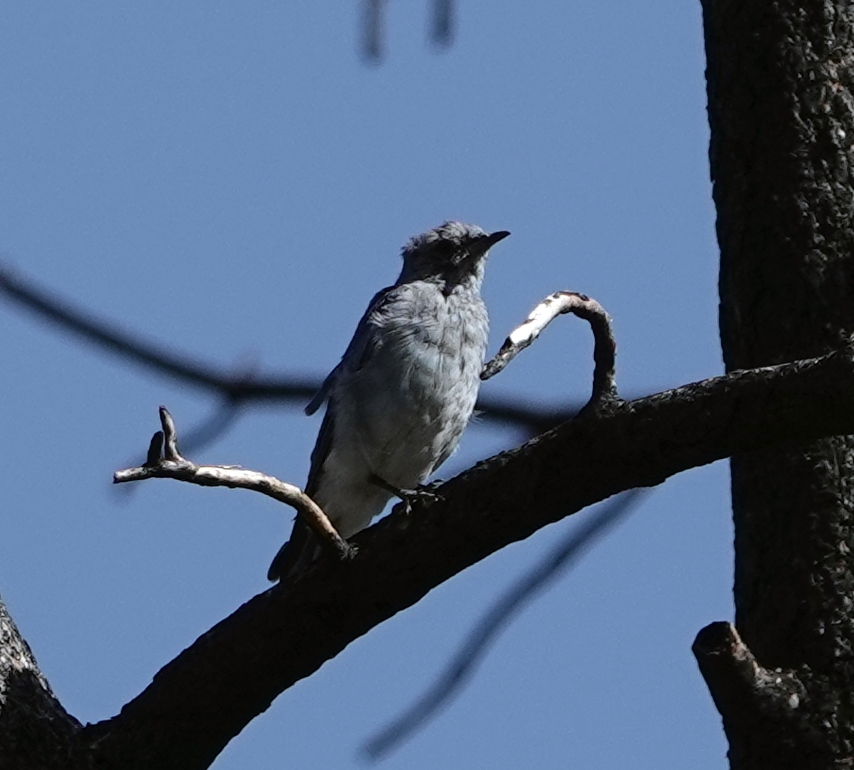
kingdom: Animalia
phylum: Chordata
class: Aves
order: Passeriformes
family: Turdidae
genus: Sialia
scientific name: Sialia currucoides
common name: Mountain bluebird
